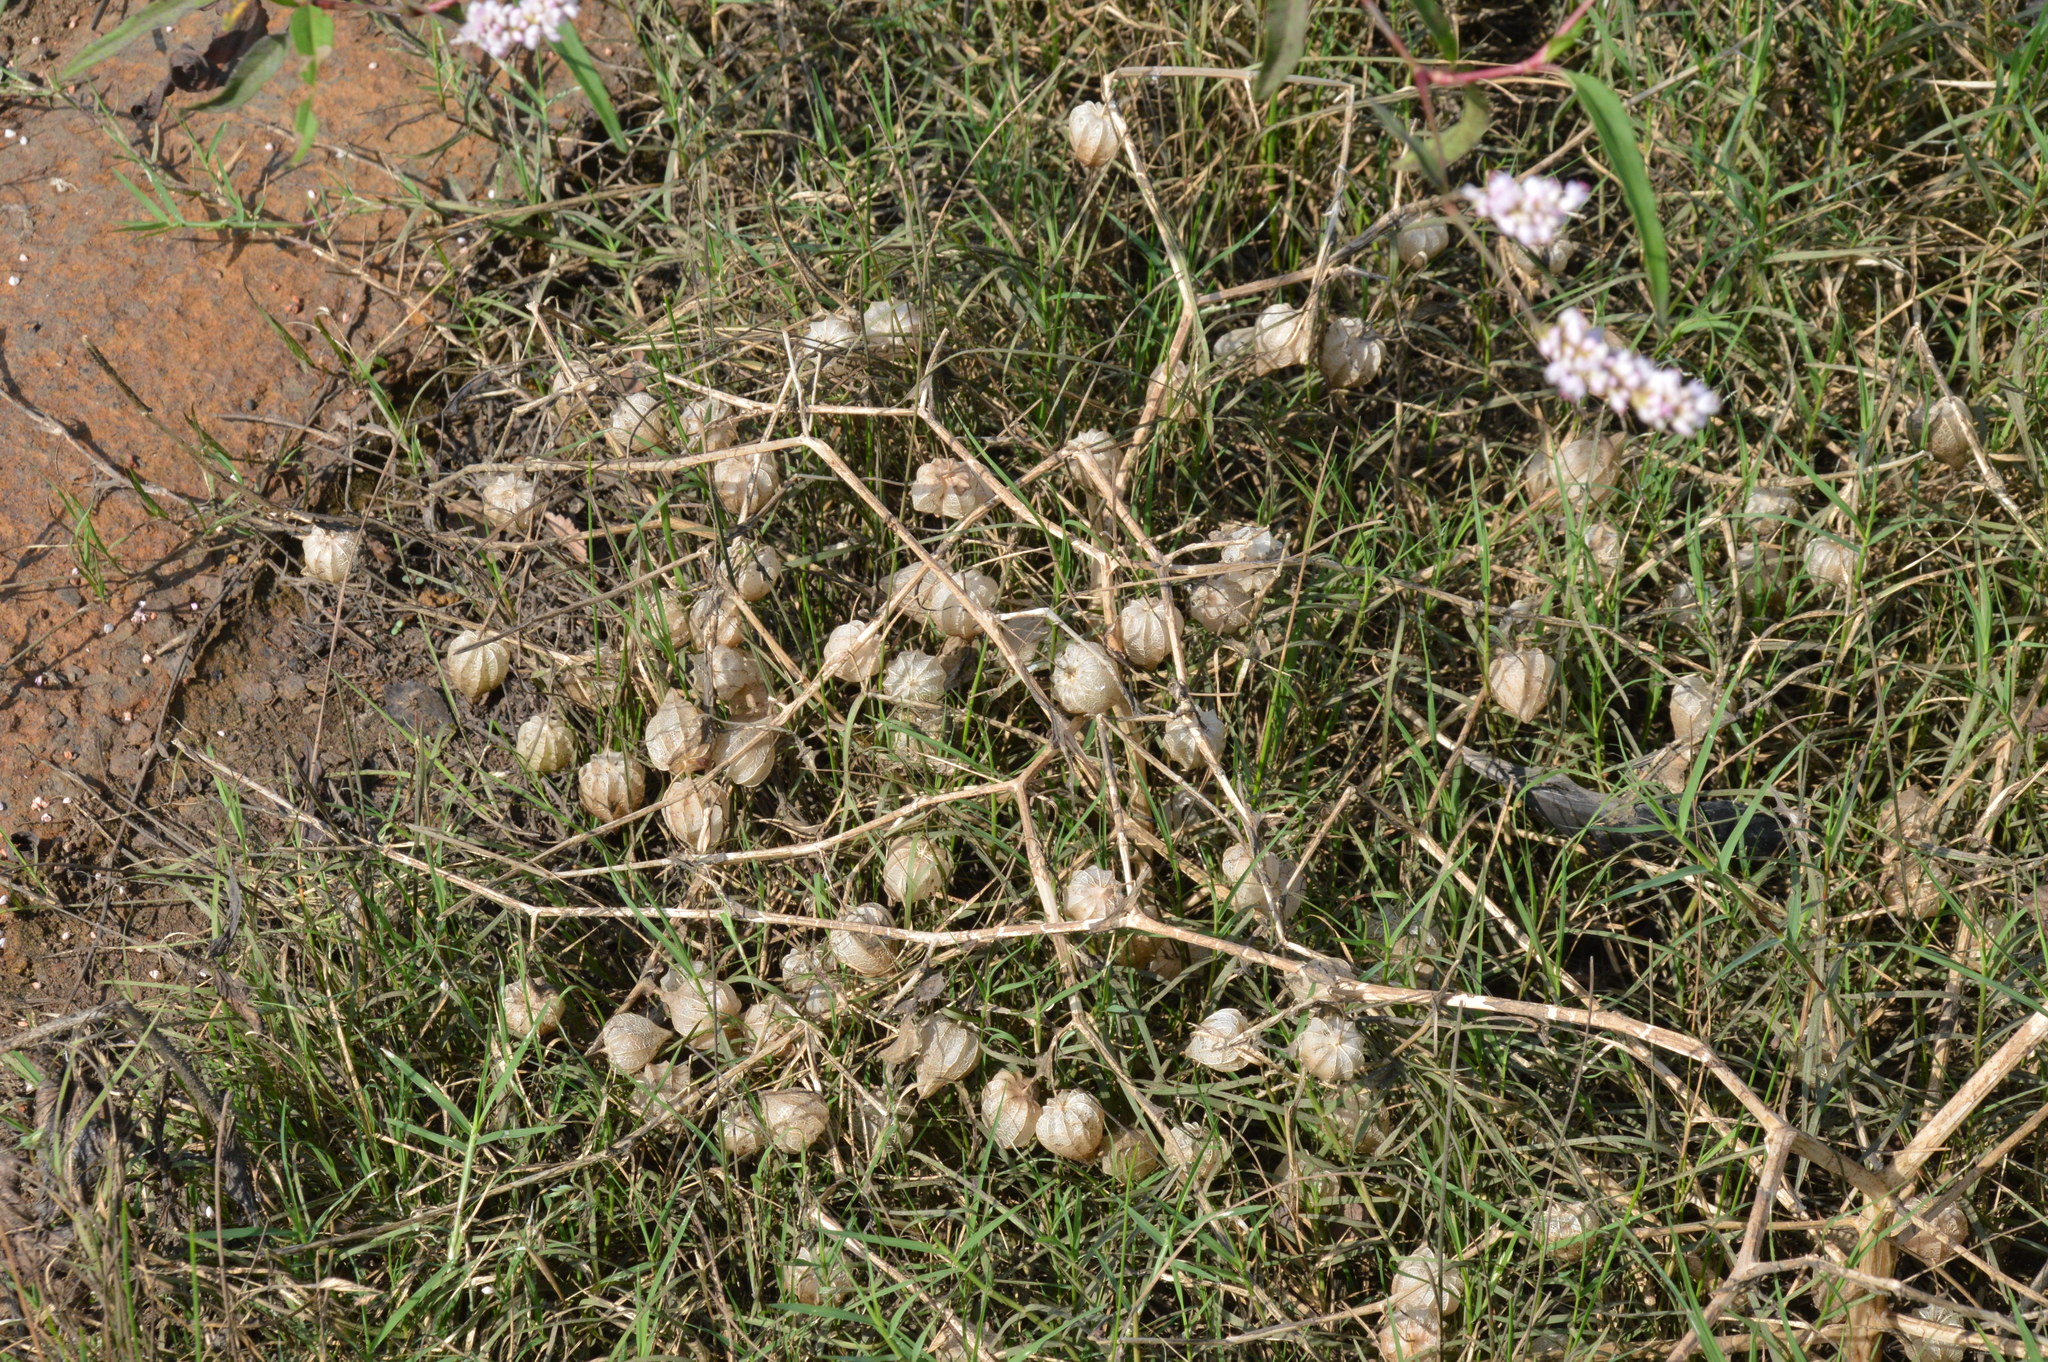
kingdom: Plantae
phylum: Tracheophyta
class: Magnoliopsida
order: Solanales
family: Solanaceae
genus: Physalis
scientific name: Physalis angulata
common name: Angular winter-cherry
